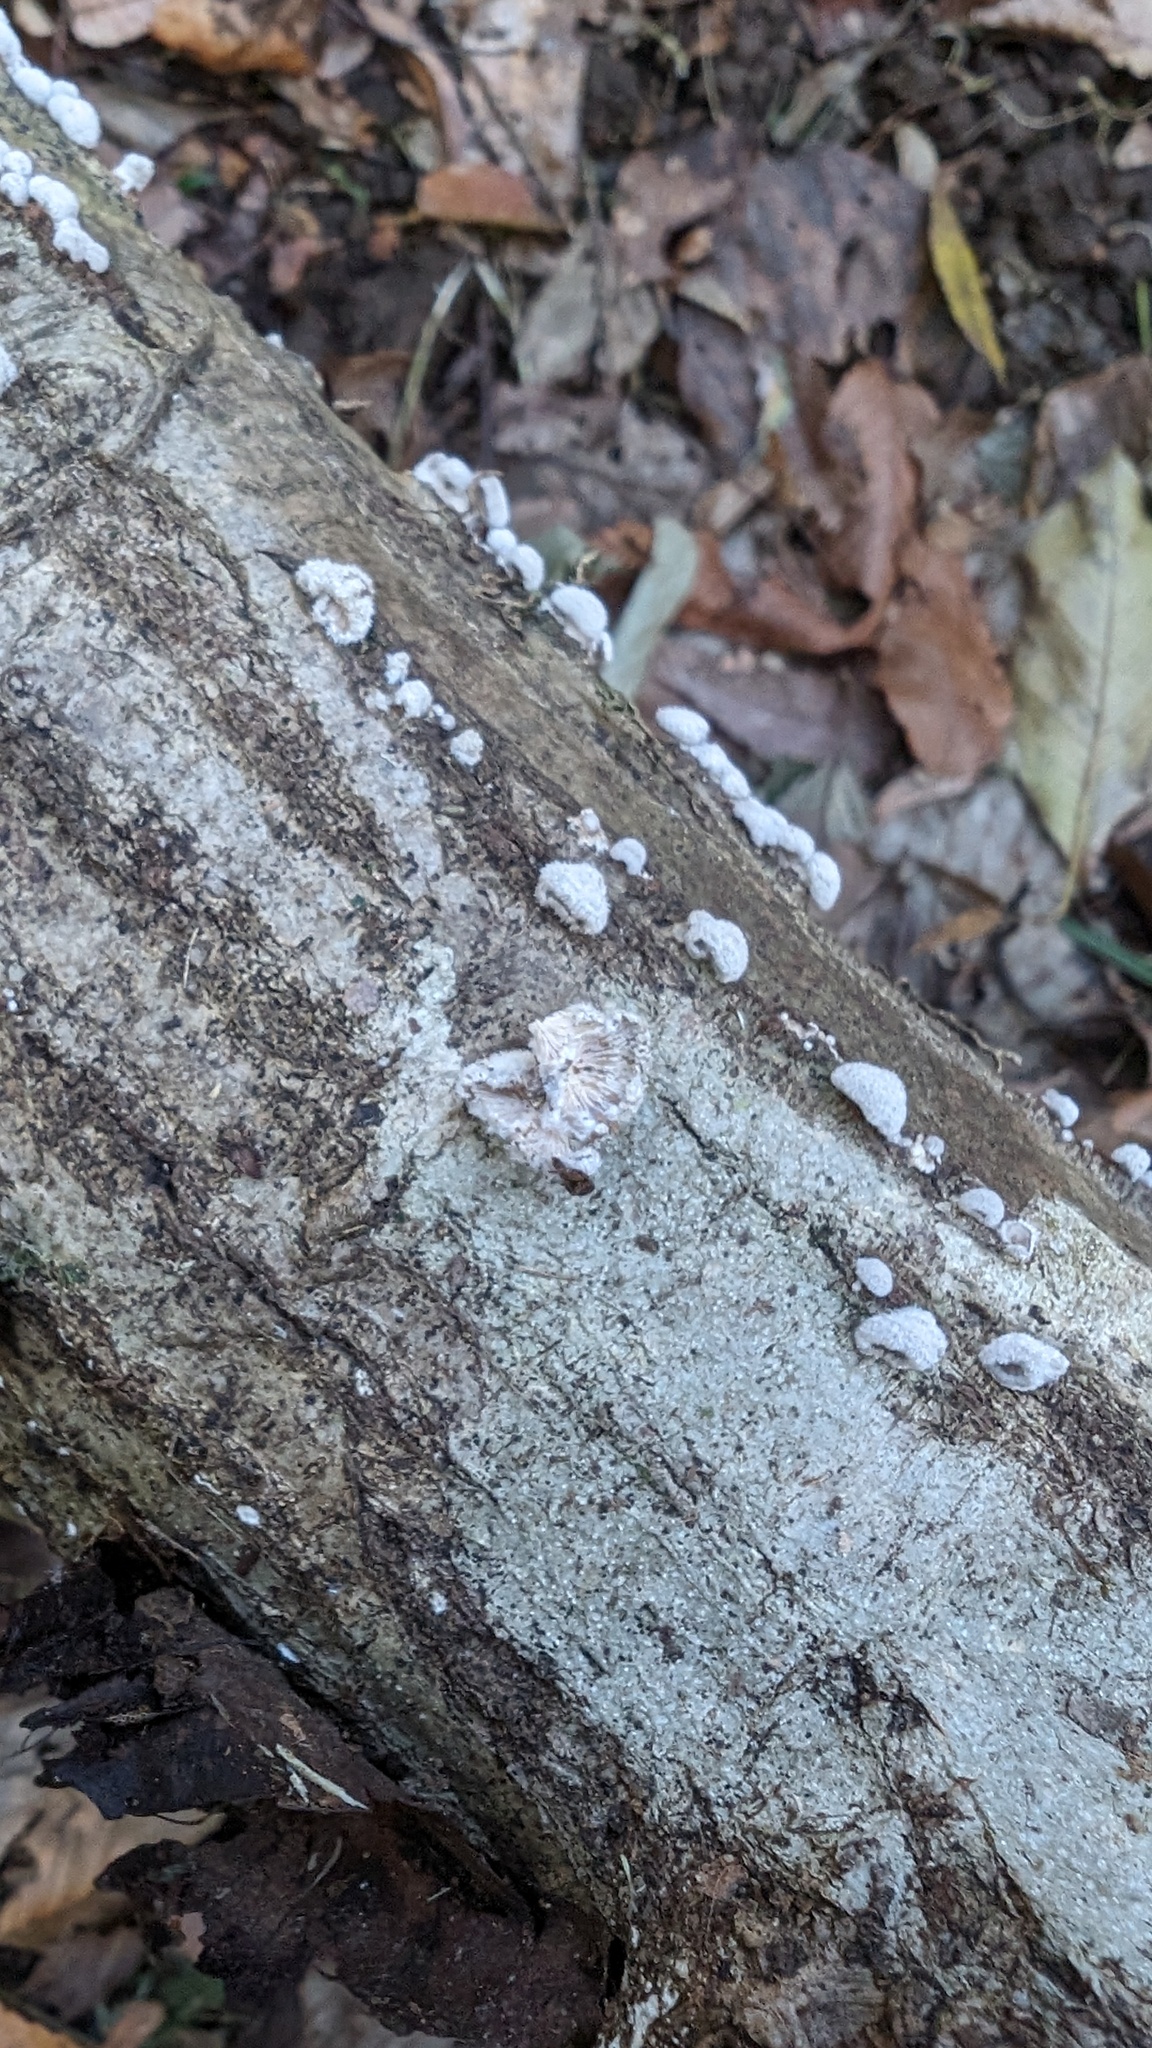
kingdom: Fungi
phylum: Basidiomycota
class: Agaricomycetes
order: Agaricales
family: Schizophyllaceae
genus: Schizophyllum
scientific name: Schizophyllum commune
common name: Common porecrust
